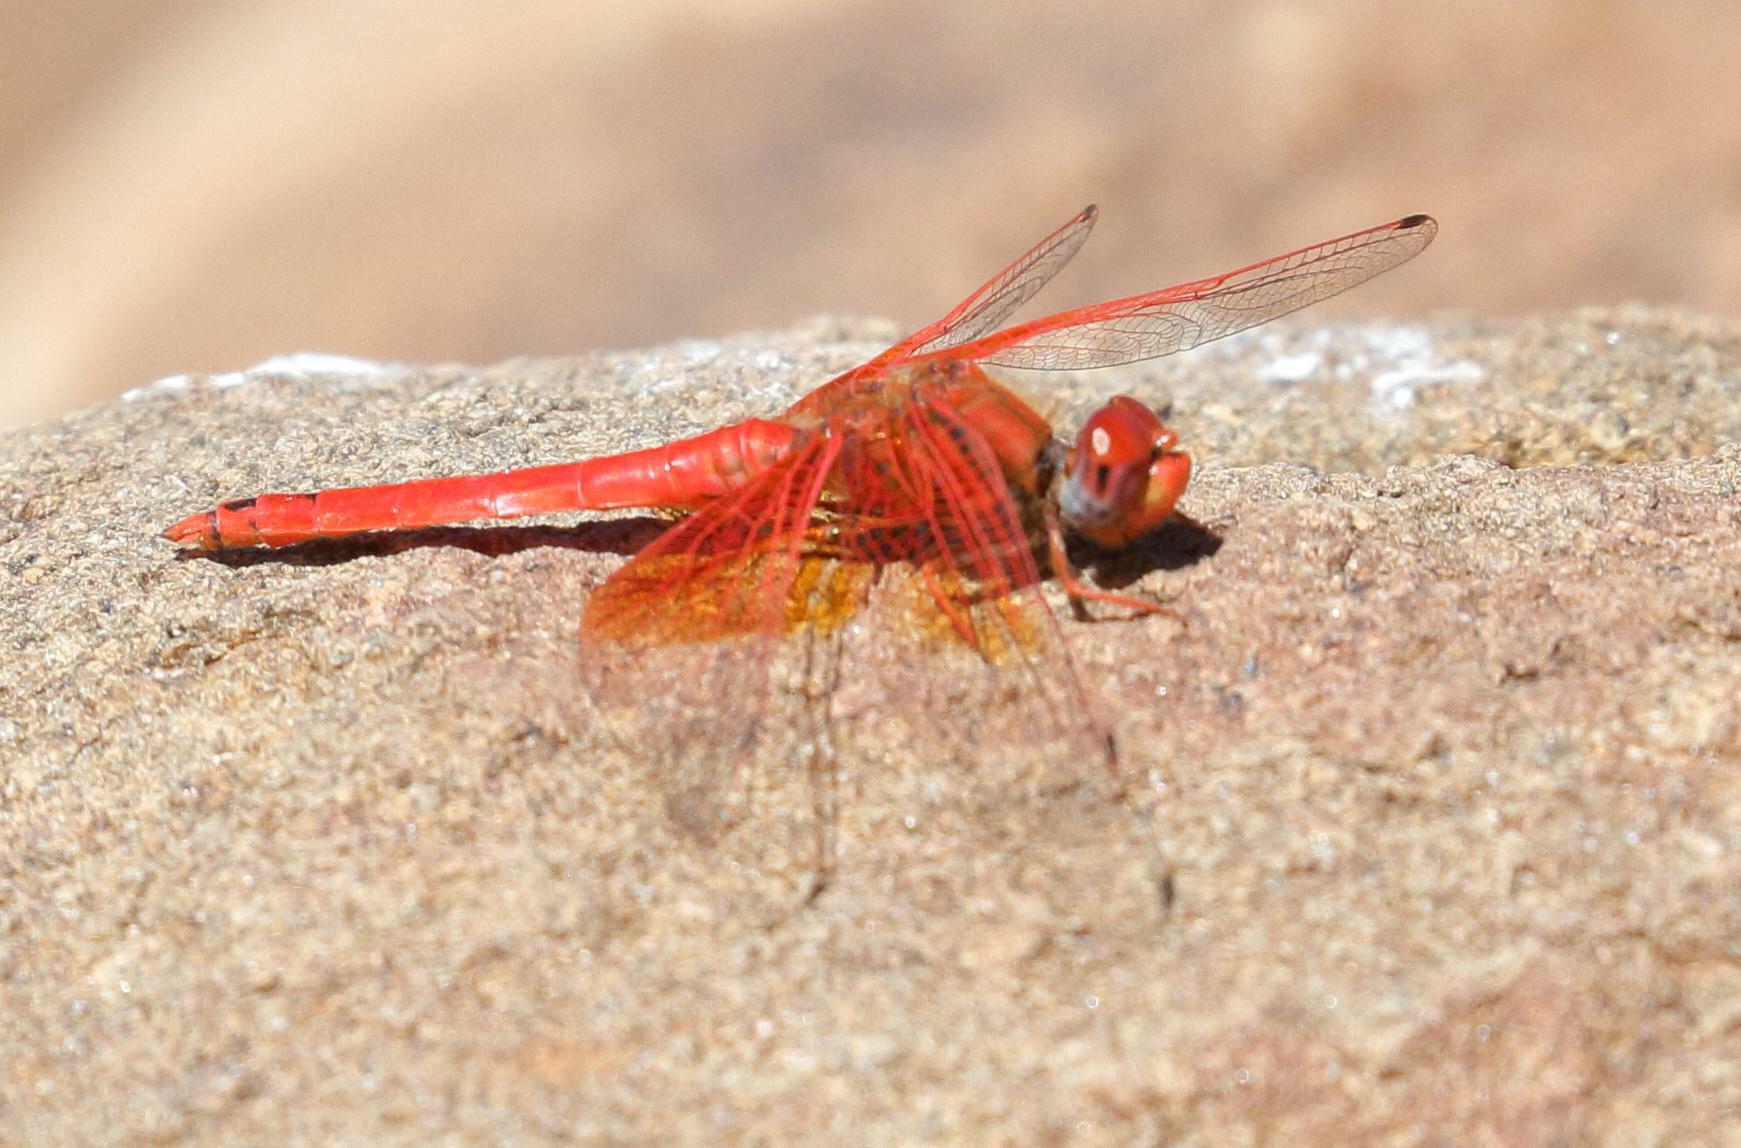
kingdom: Animalia
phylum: Arthropoda
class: Insecta
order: Odonata
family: Libellulidae
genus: Trithemis
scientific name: Trithemis kirbyi
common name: Kirby's dropwing
